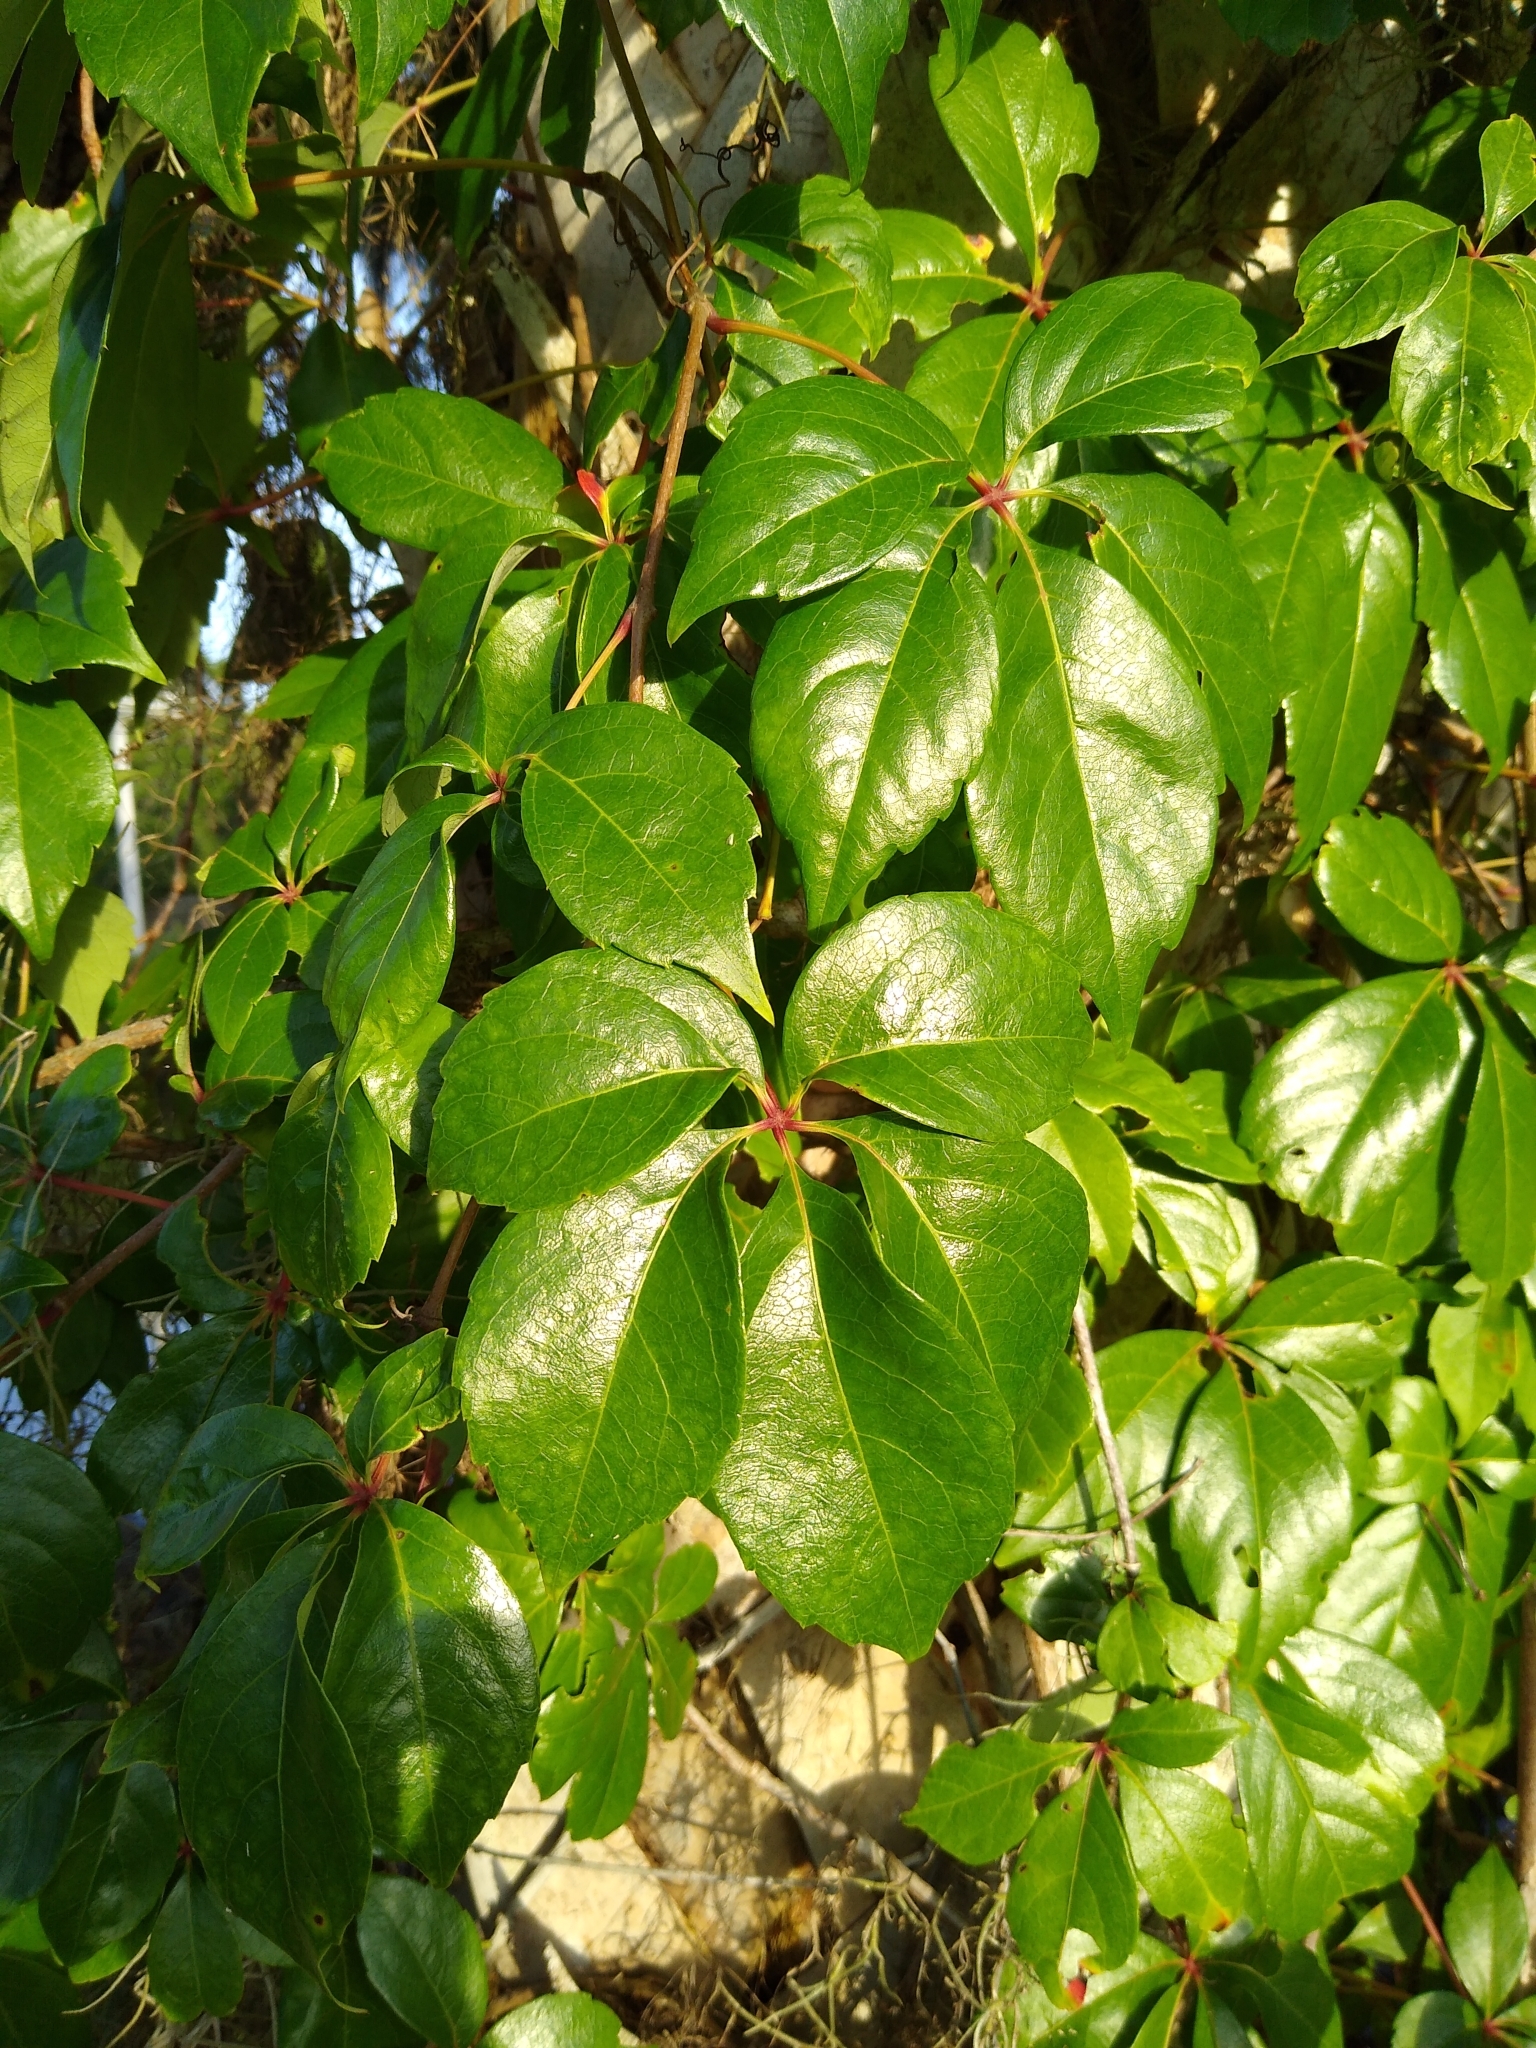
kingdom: Plantae
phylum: Tracheophyta
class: Magnoliopsida
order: Vitales
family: Vitaceae
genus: Parthenocissus
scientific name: Parthenocissus quinquefolia
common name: Virginia-creeper
